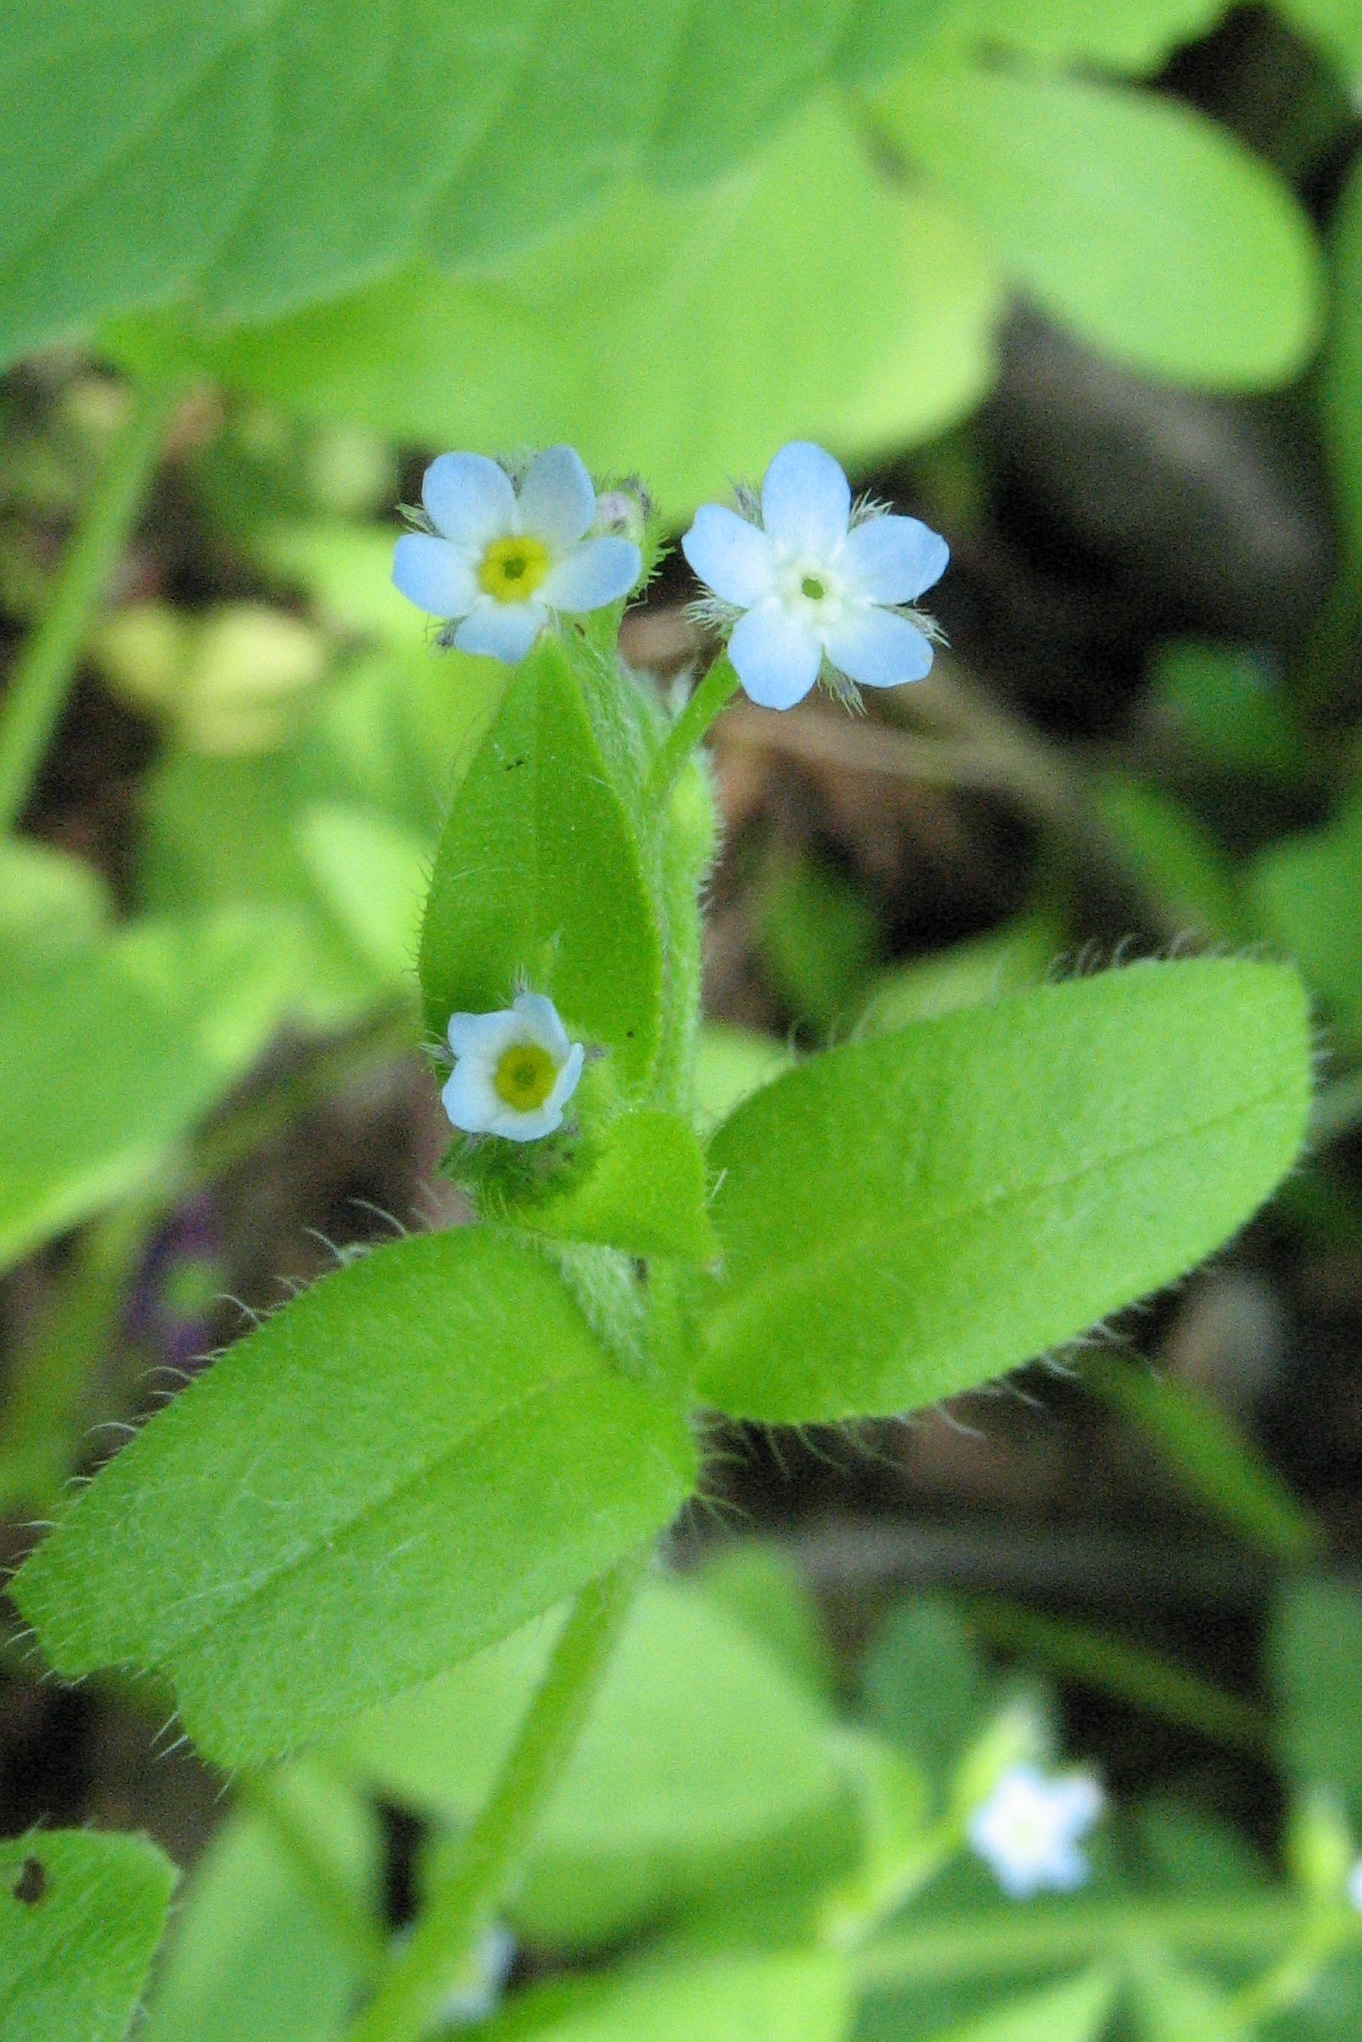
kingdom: Plantae
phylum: Tracheophyta
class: Magnoliopsida
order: Boraginales
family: Boraginaceae
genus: Myosotis
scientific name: Myosotis sparsiflora
